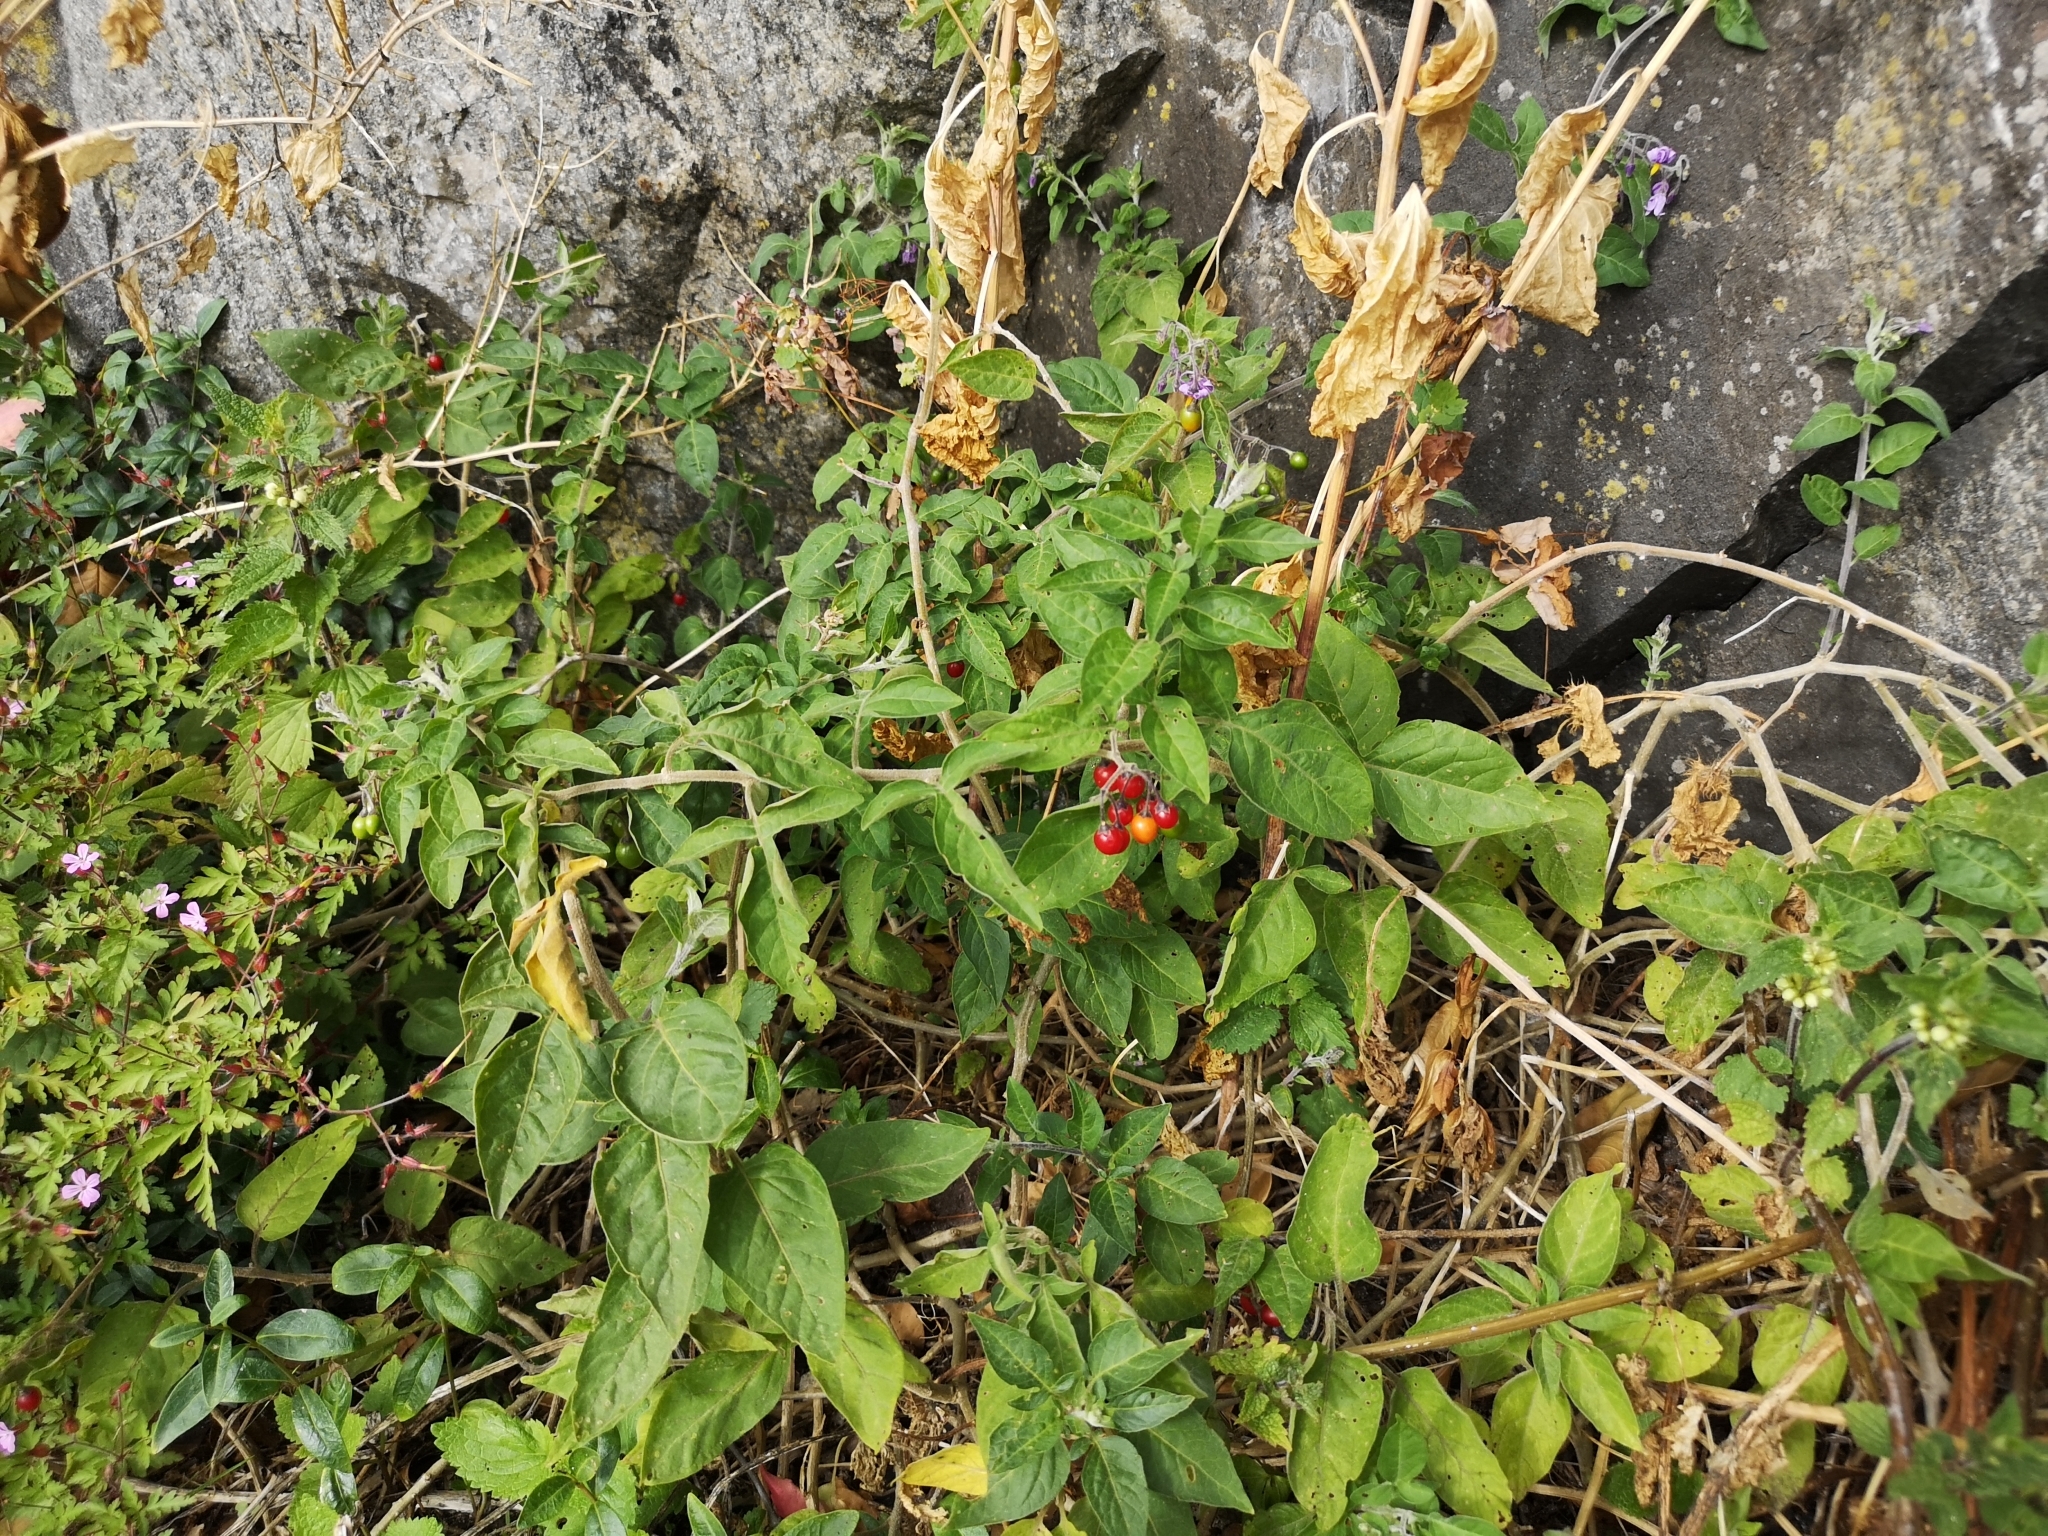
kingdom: Plantae
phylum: Tracheophyta
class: Magnoliopsida
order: Solanales
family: Solanaceae
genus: Solanum
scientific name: Solanum dulcamara
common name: Climbing nightshade
